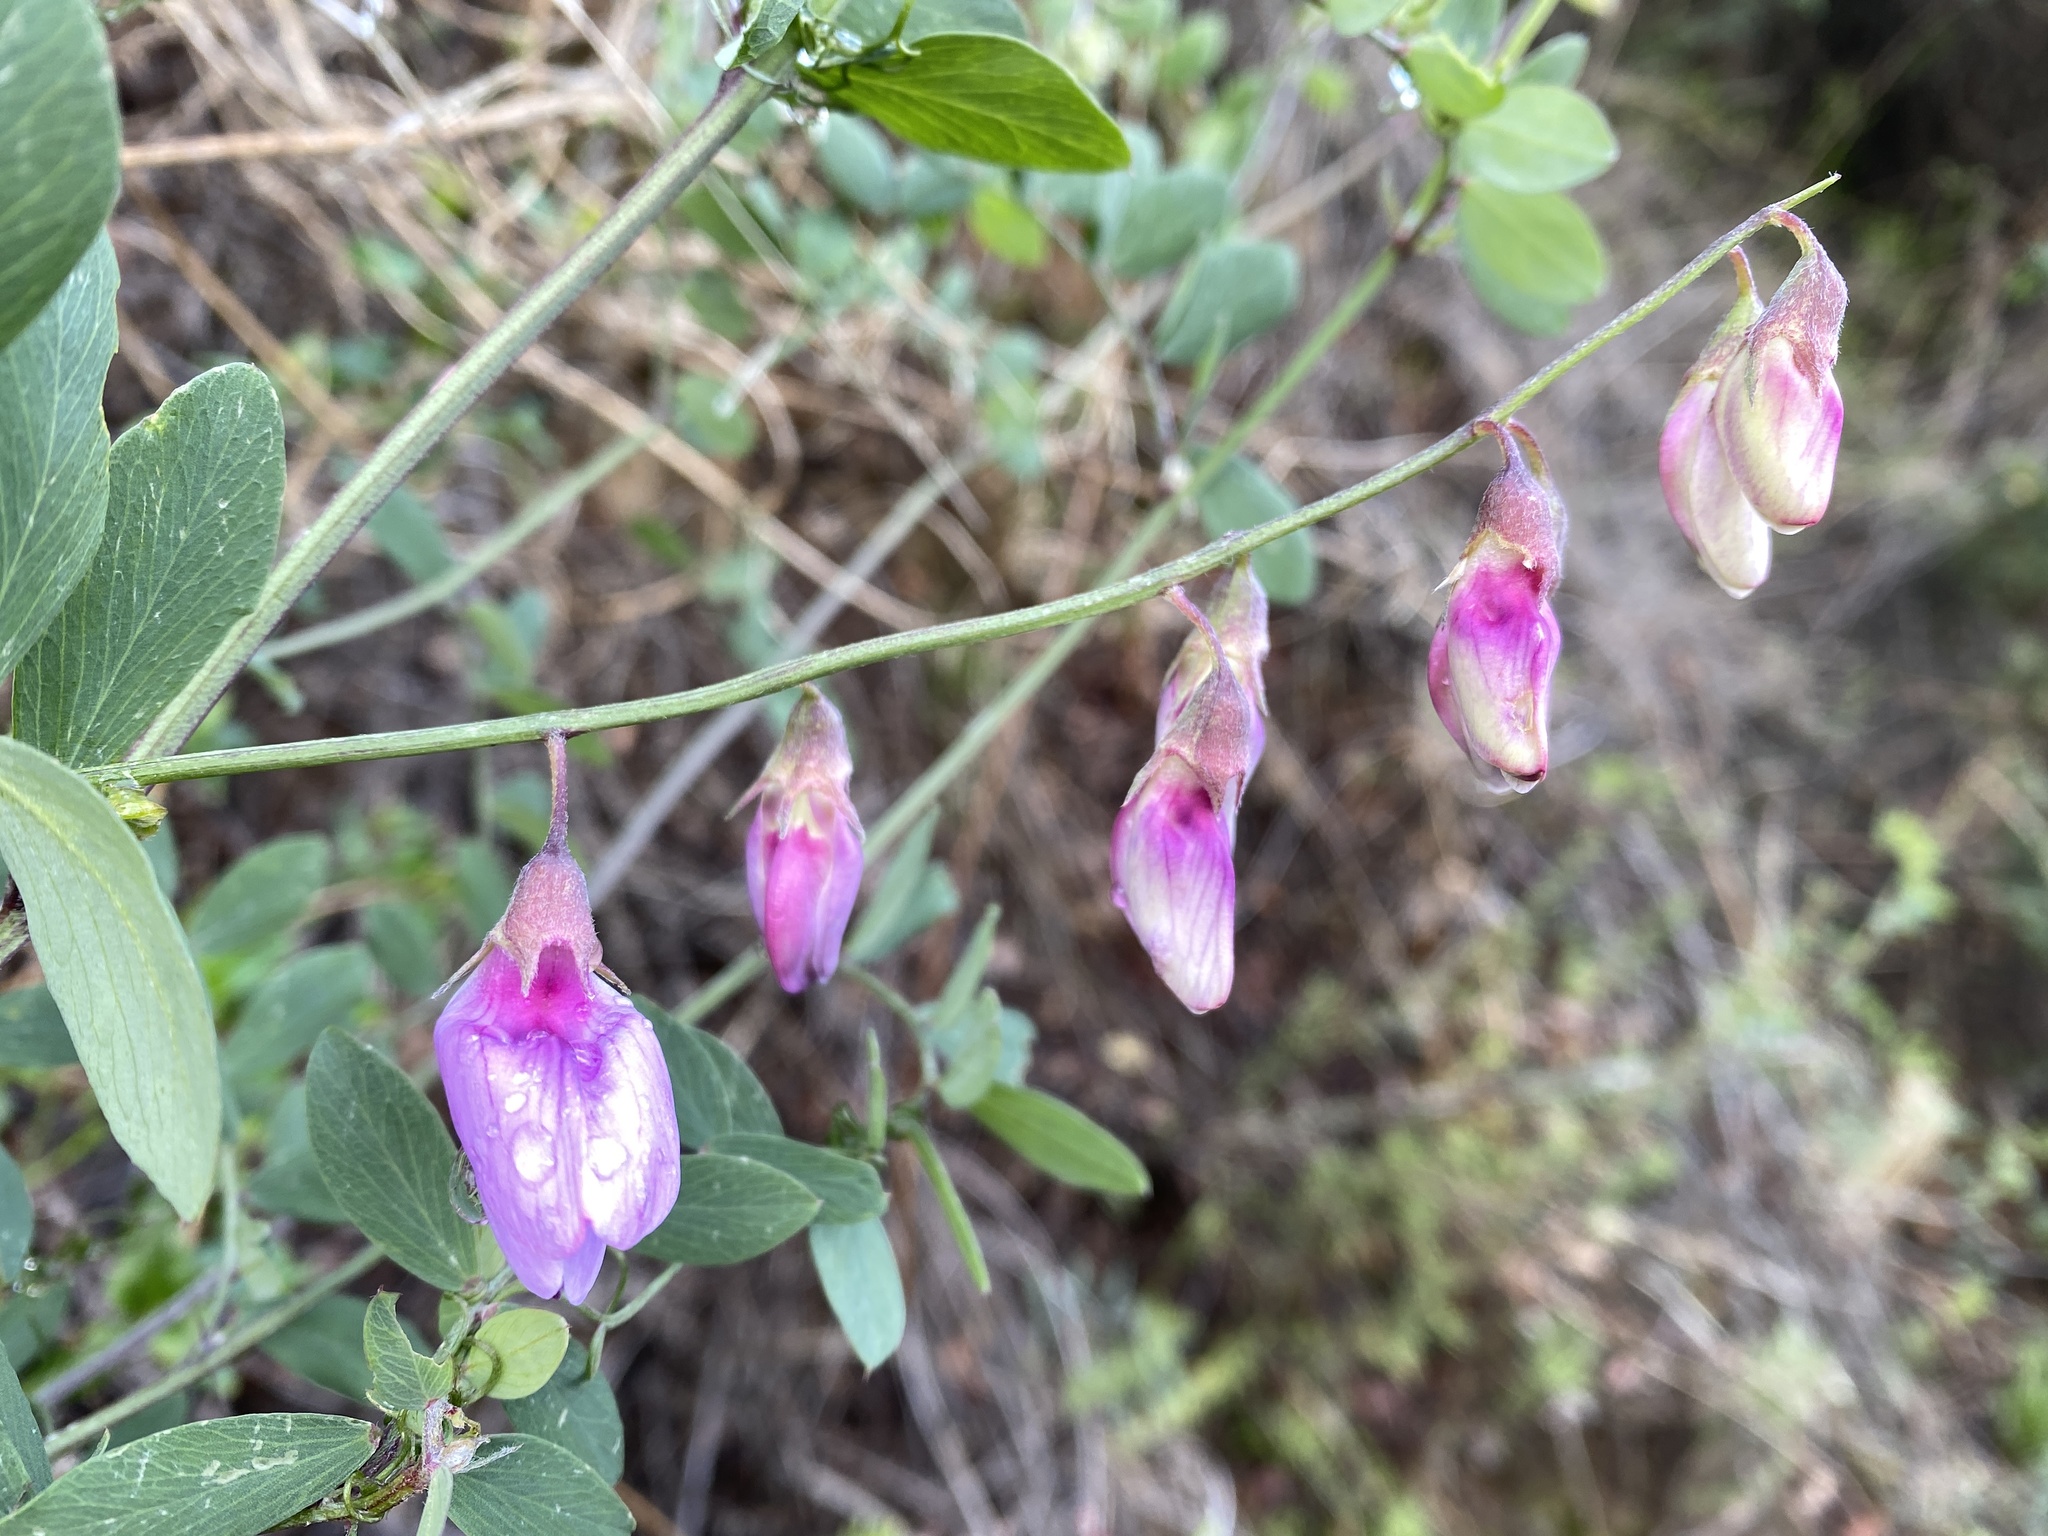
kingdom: Plantae
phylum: Tracheophyta
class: Magnoliopsida
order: Fabales
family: Fabaceae
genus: Lathyrus
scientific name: Lathyrus vestitus
